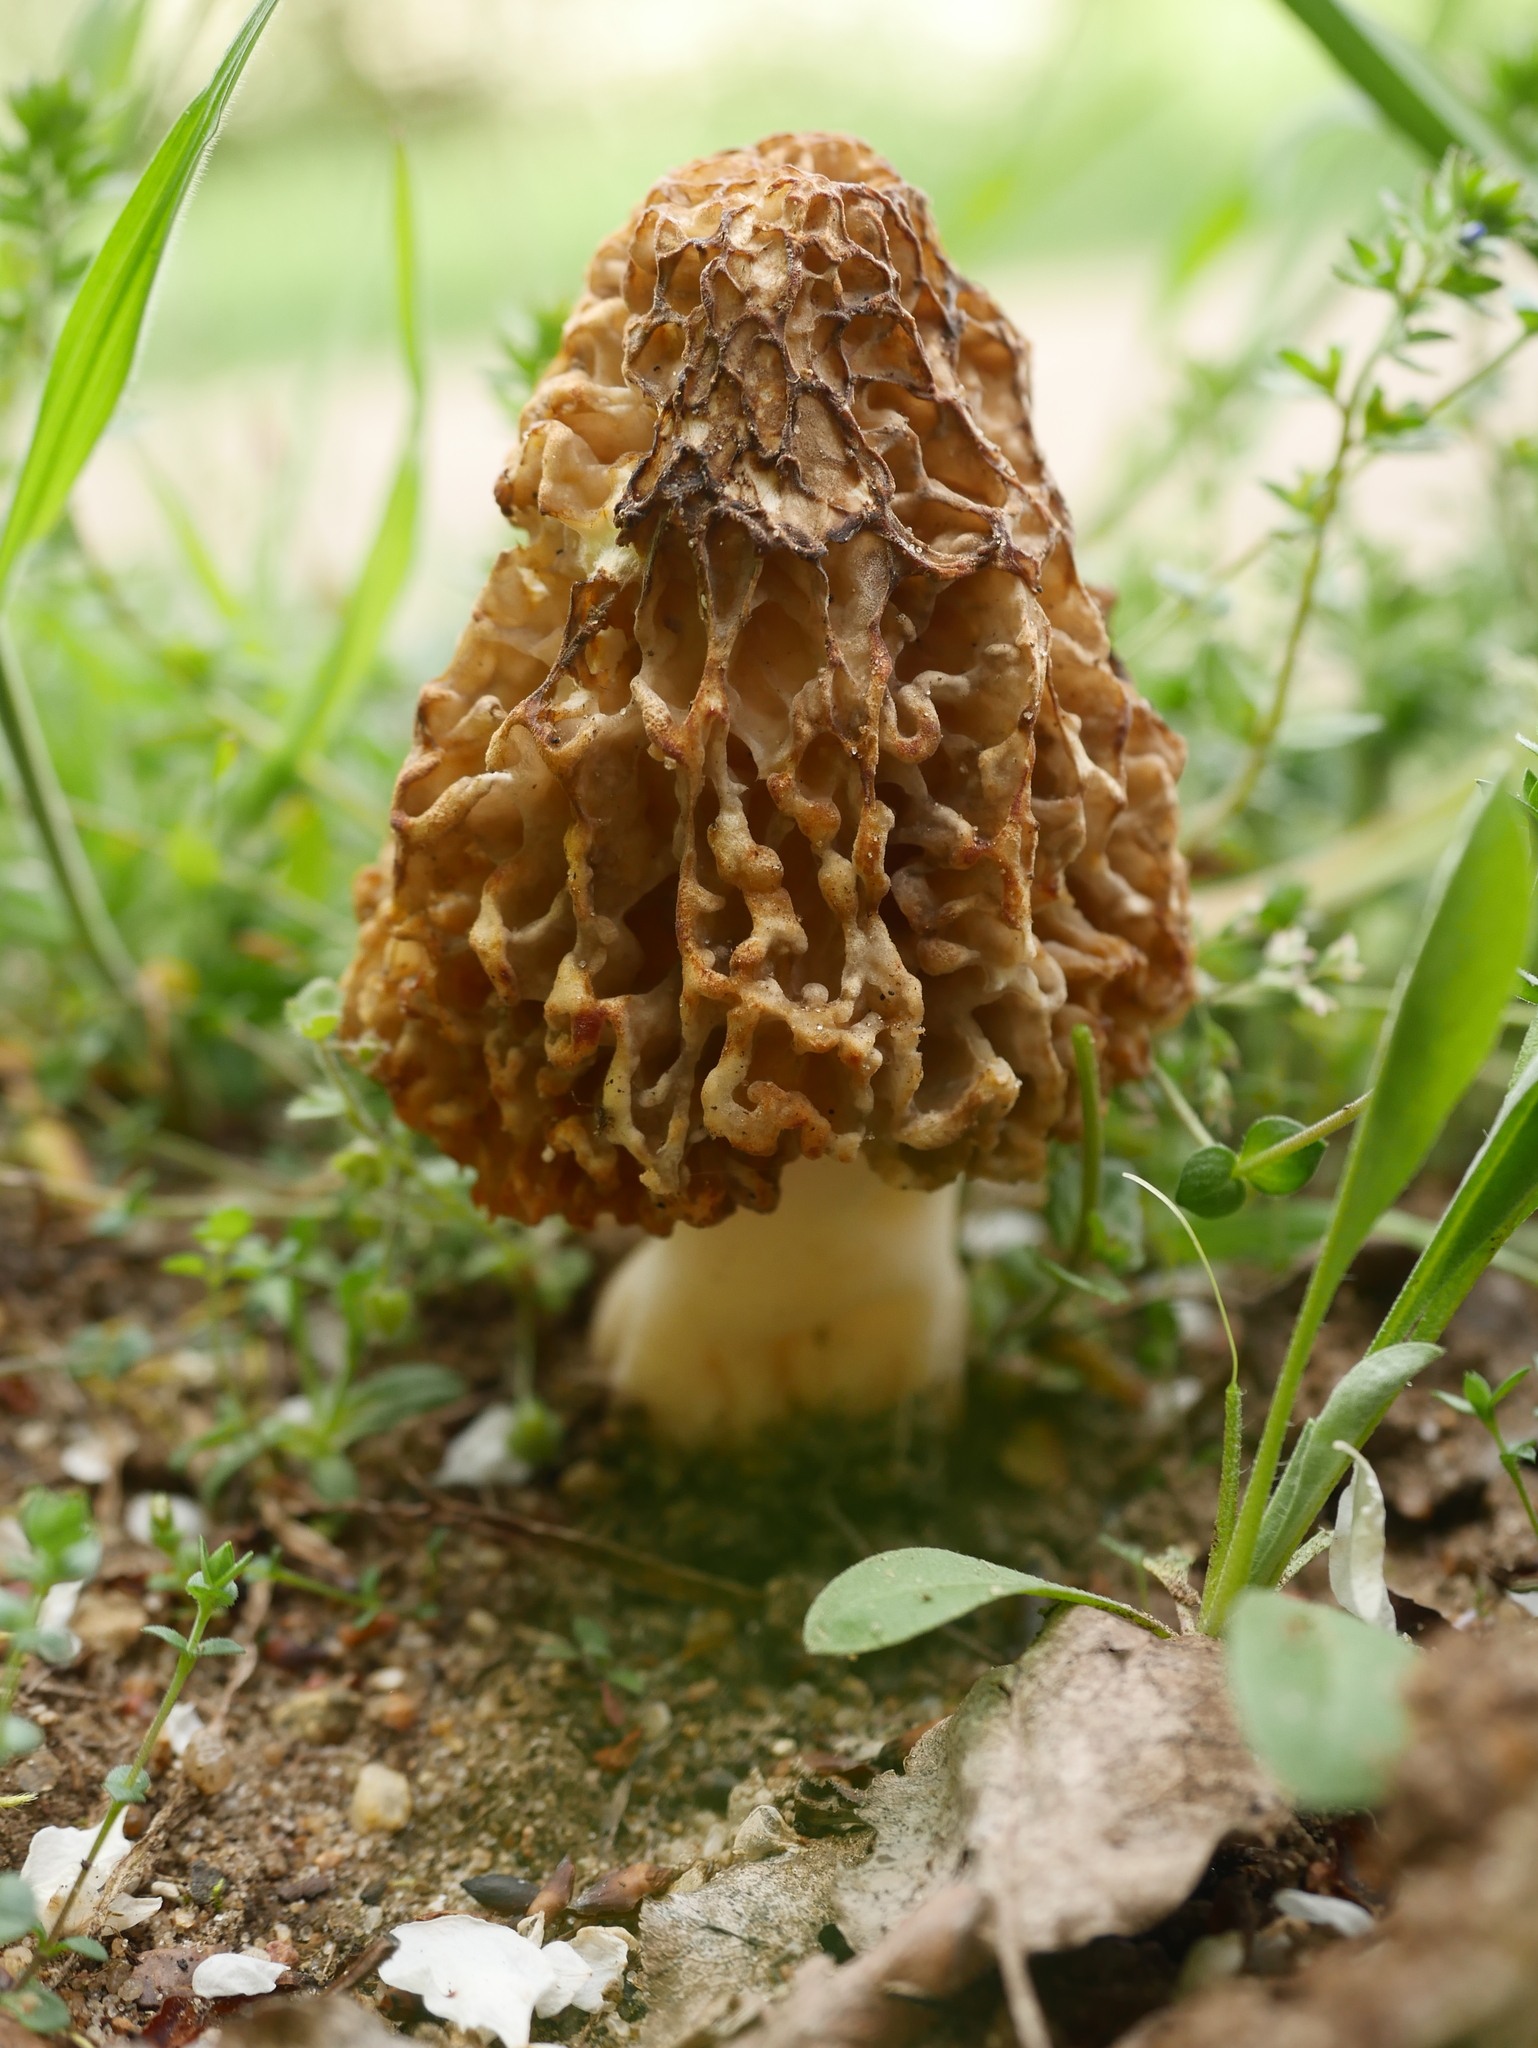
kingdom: Fungi
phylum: Ascomycota
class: Pezizomycetes
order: Pezizales
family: Morchellaceae
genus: Morchella
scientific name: Morchella vulgaris
